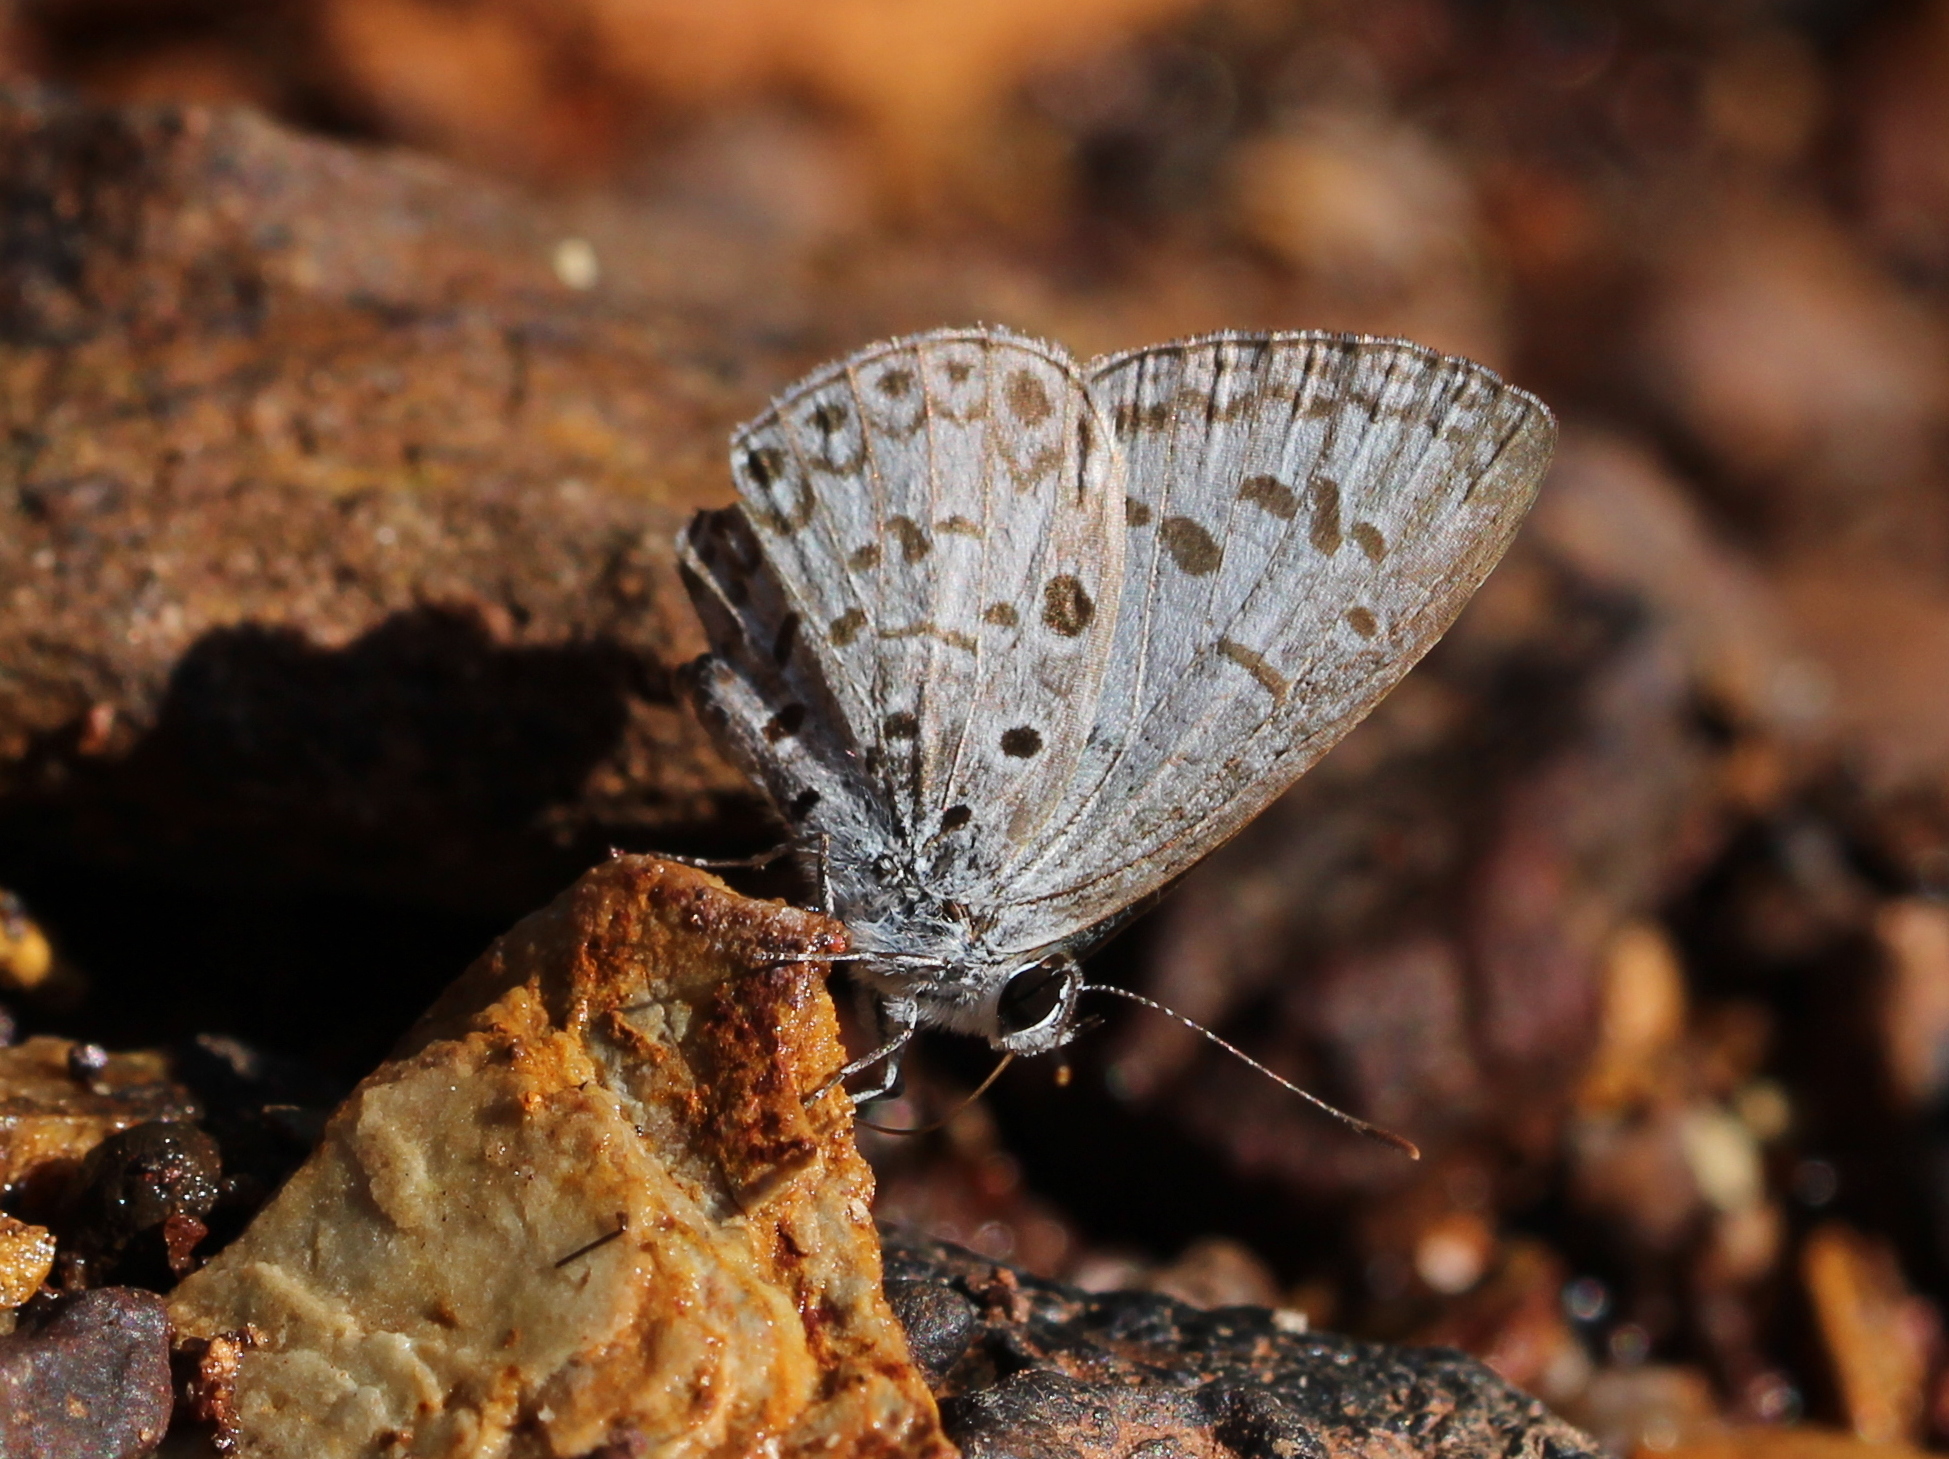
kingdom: Animalia
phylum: Arthropoda
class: Insecta
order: Lepidoptera
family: Lycaenidae
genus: Acytolepis
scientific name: Acytolepis puspa
